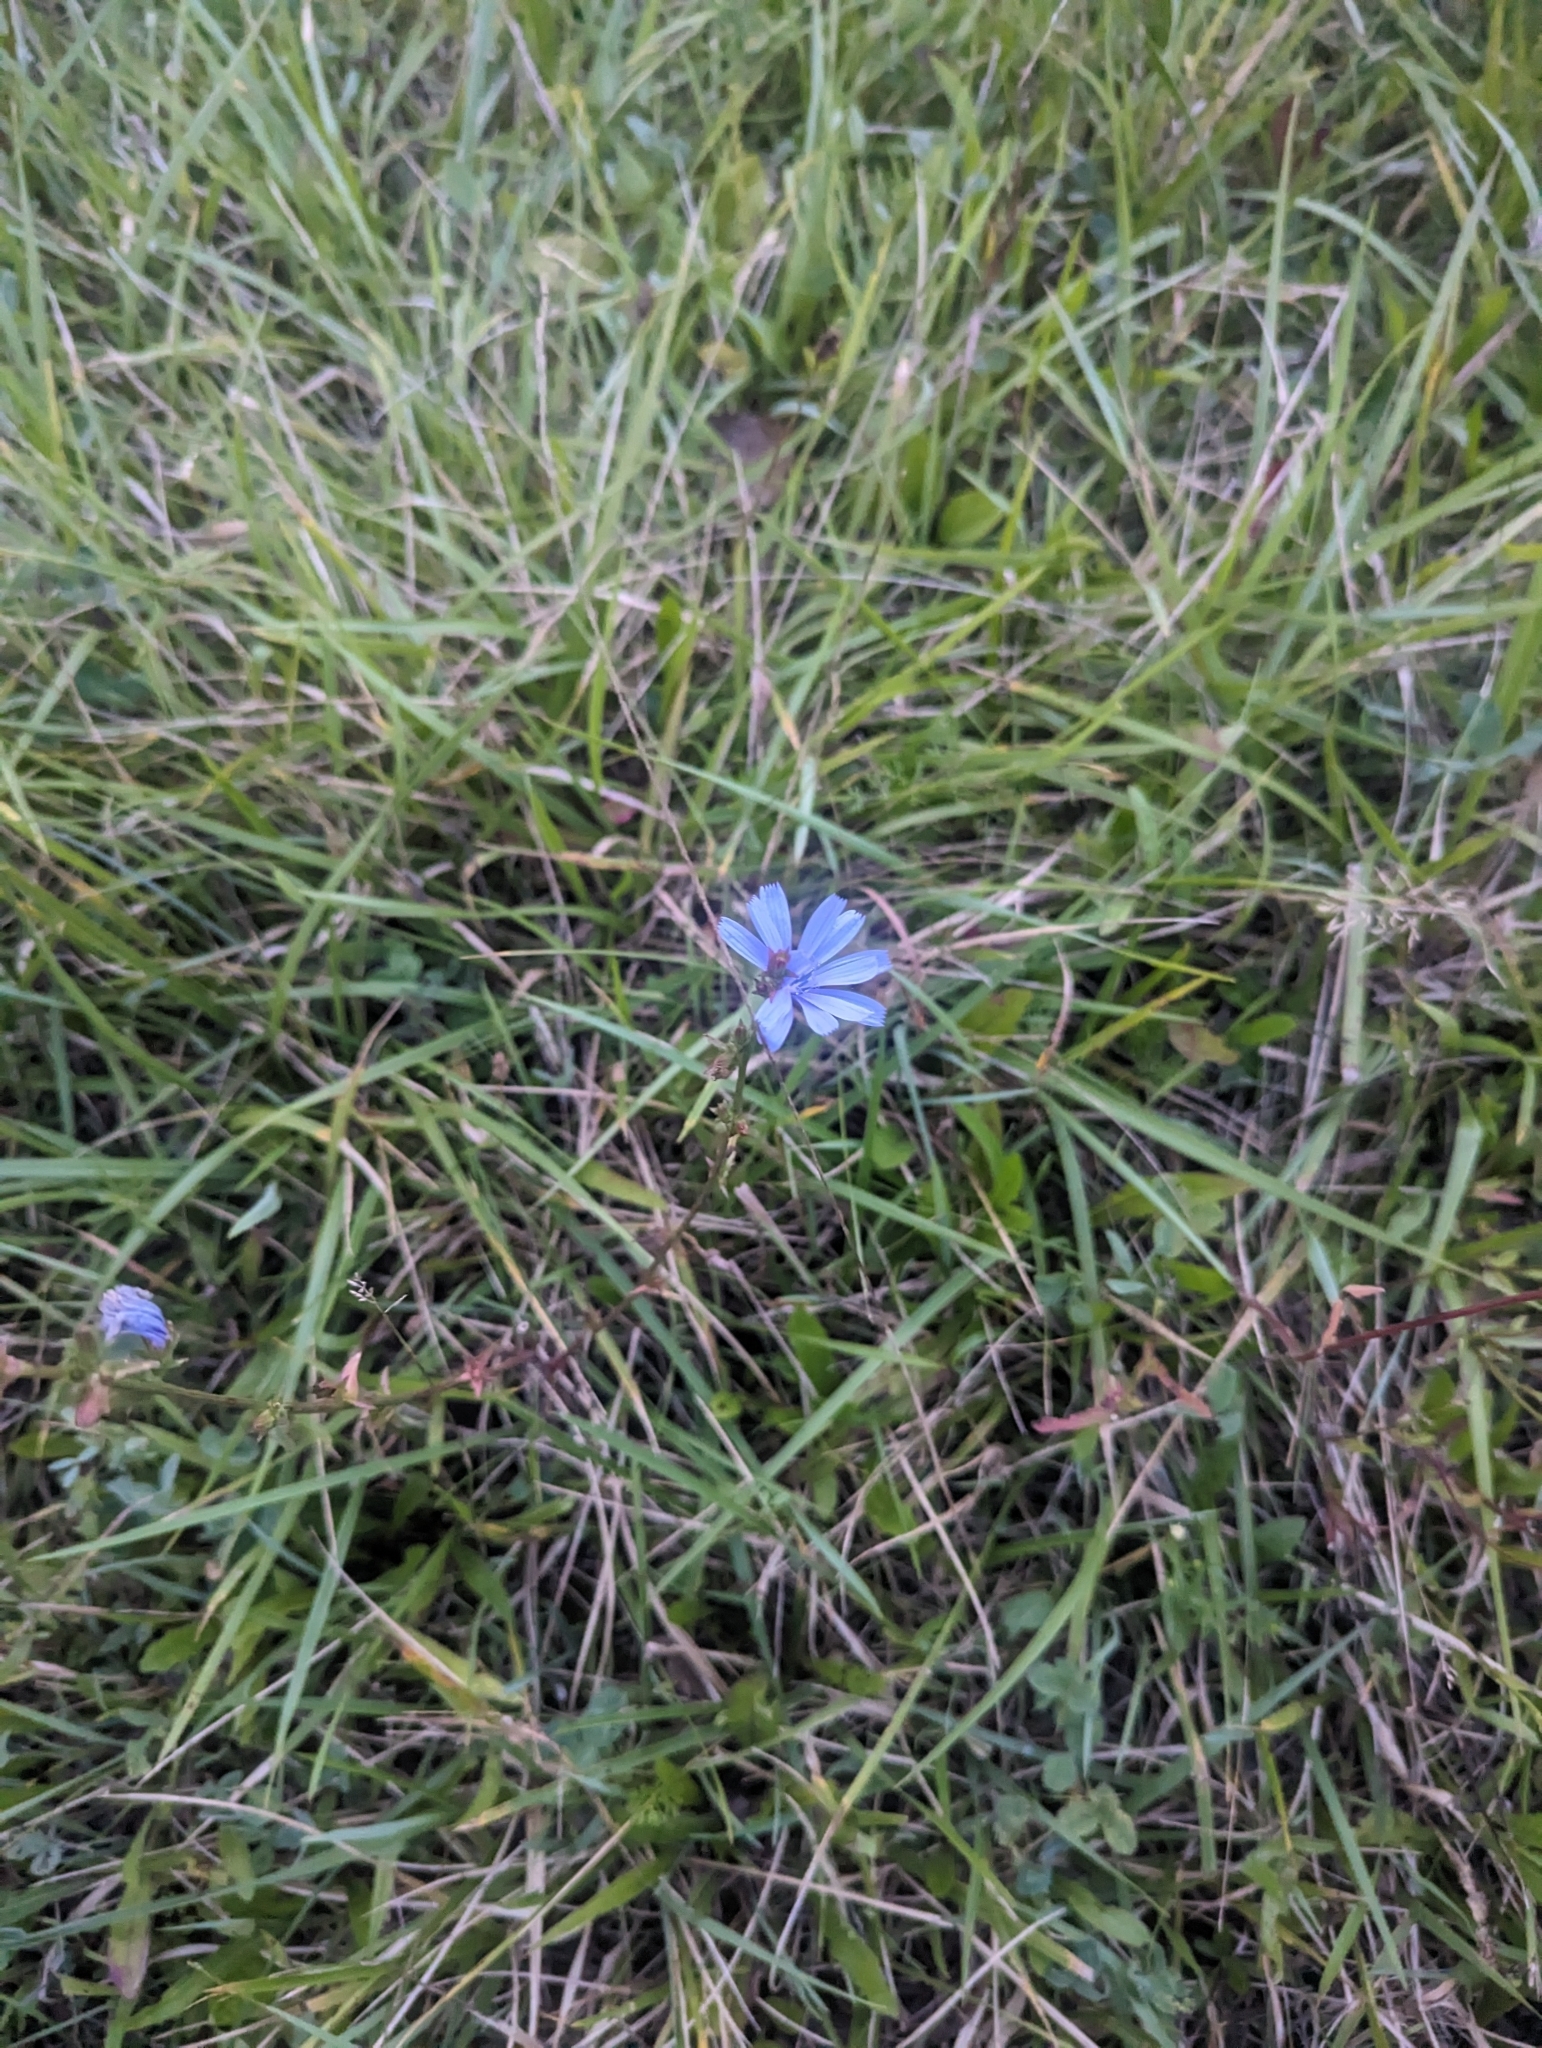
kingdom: Plantae
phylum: Tracheophyta
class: Magnoliopsida
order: Asterales
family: Asteraceae
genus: Cichorium
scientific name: Cichorium intybus
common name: Chicory
